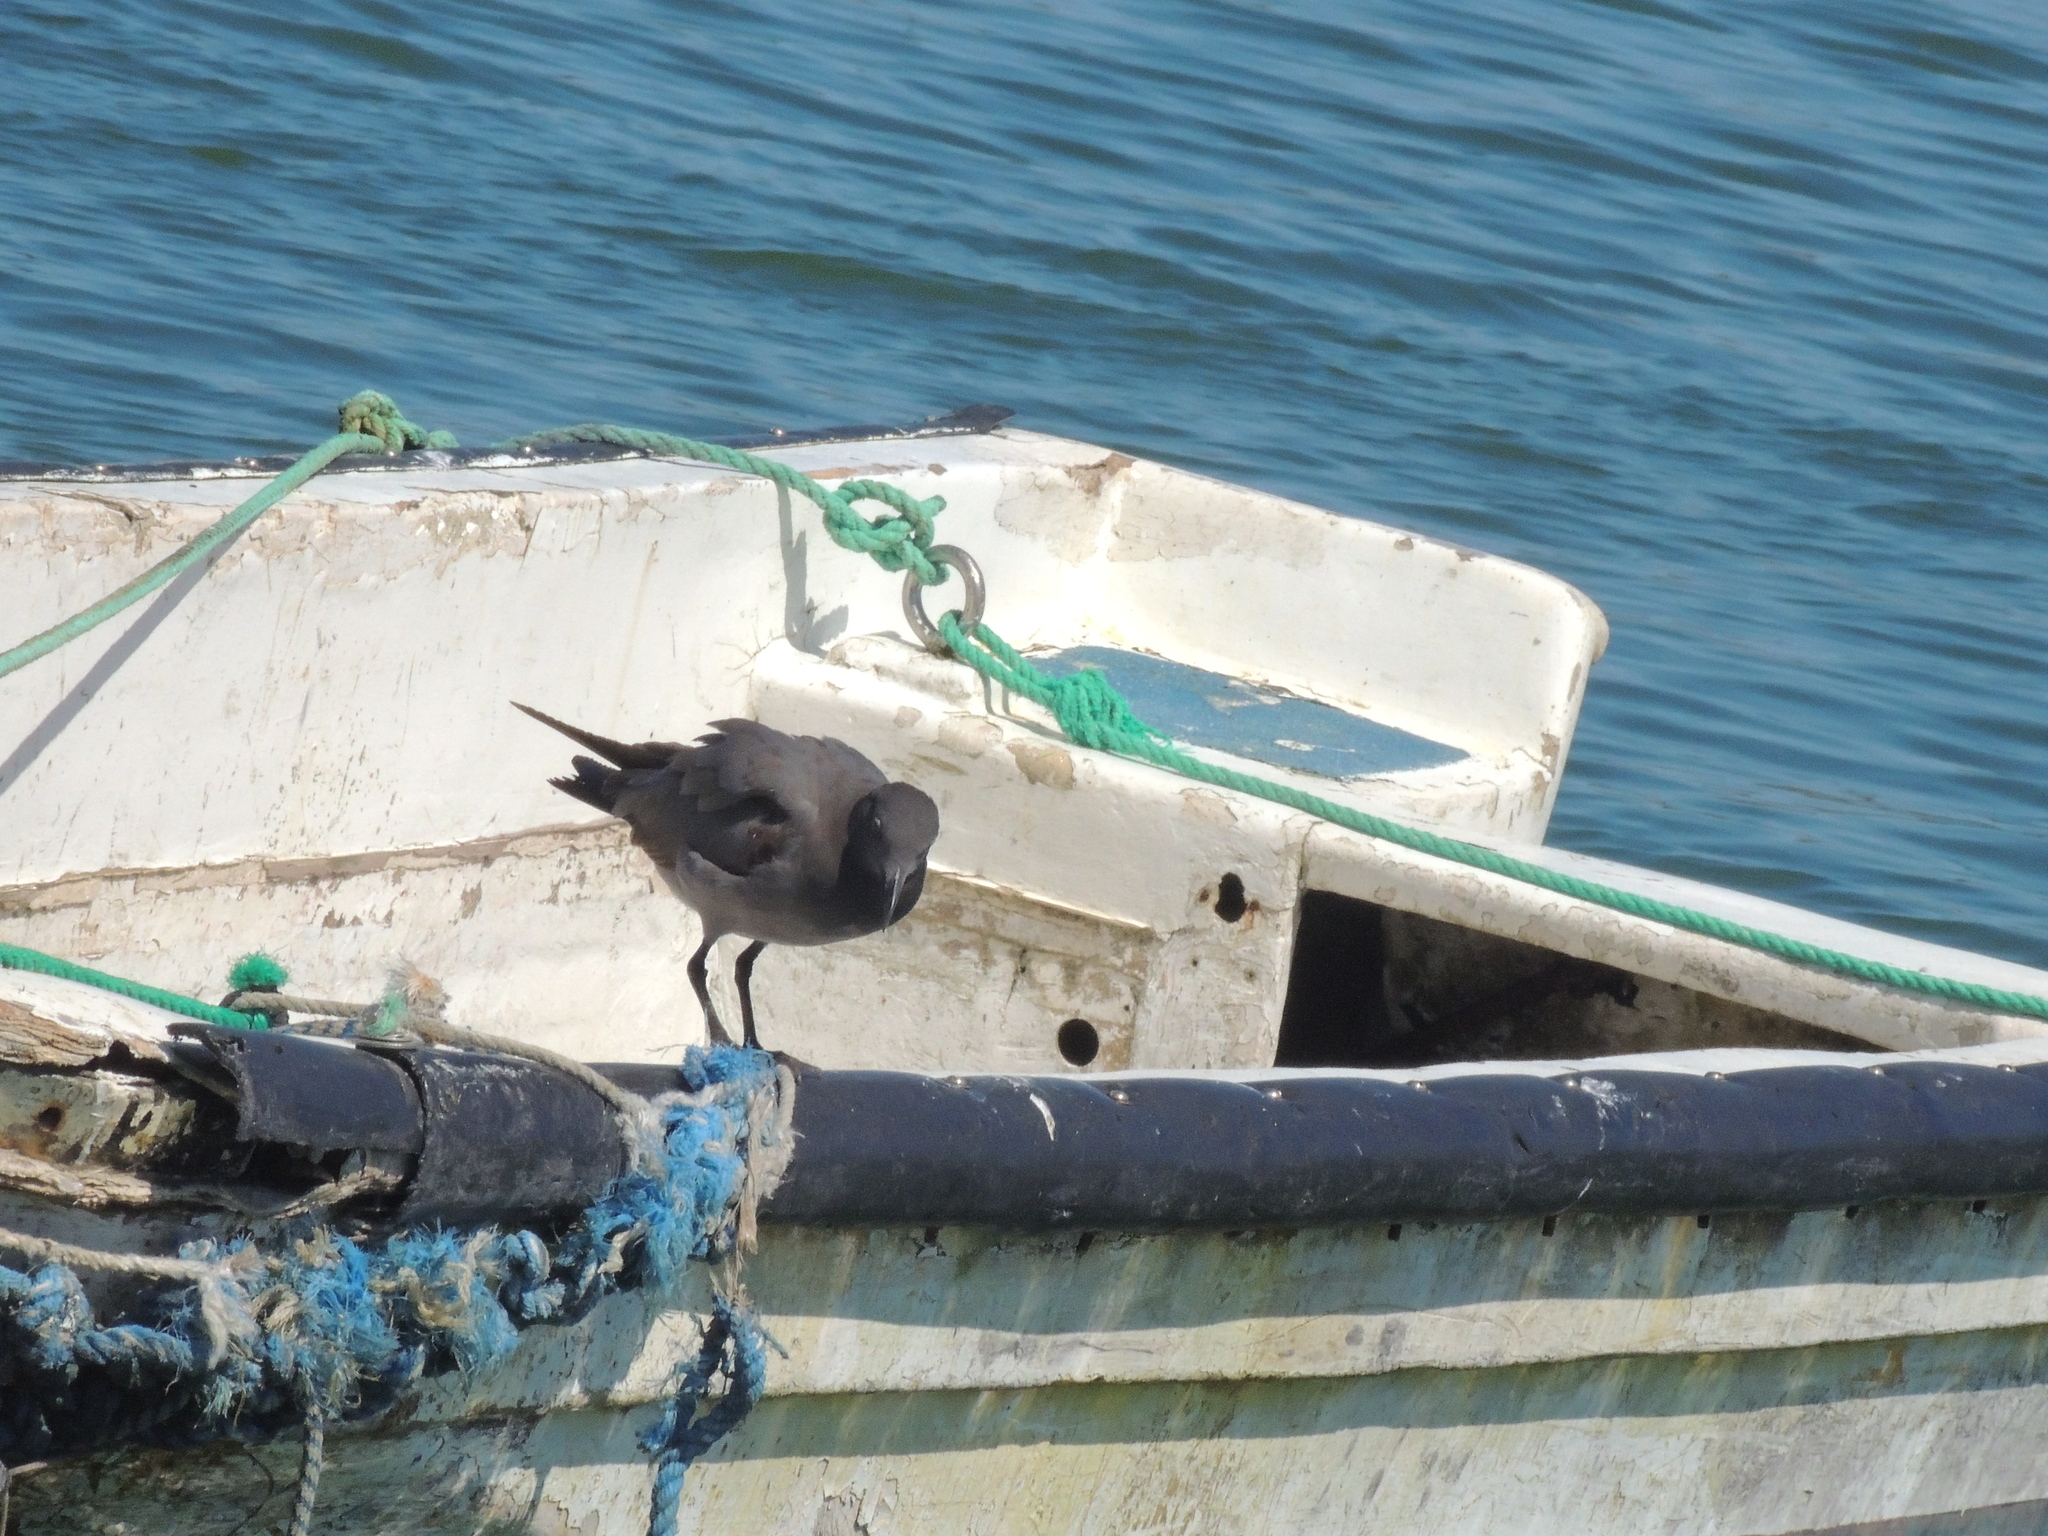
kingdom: Animalia
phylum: Chordata
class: Aves
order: Charadriiformes
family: Laridae
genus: Leucophaeus
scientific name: Leucophaeus fuliginosus
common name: Lava gull
